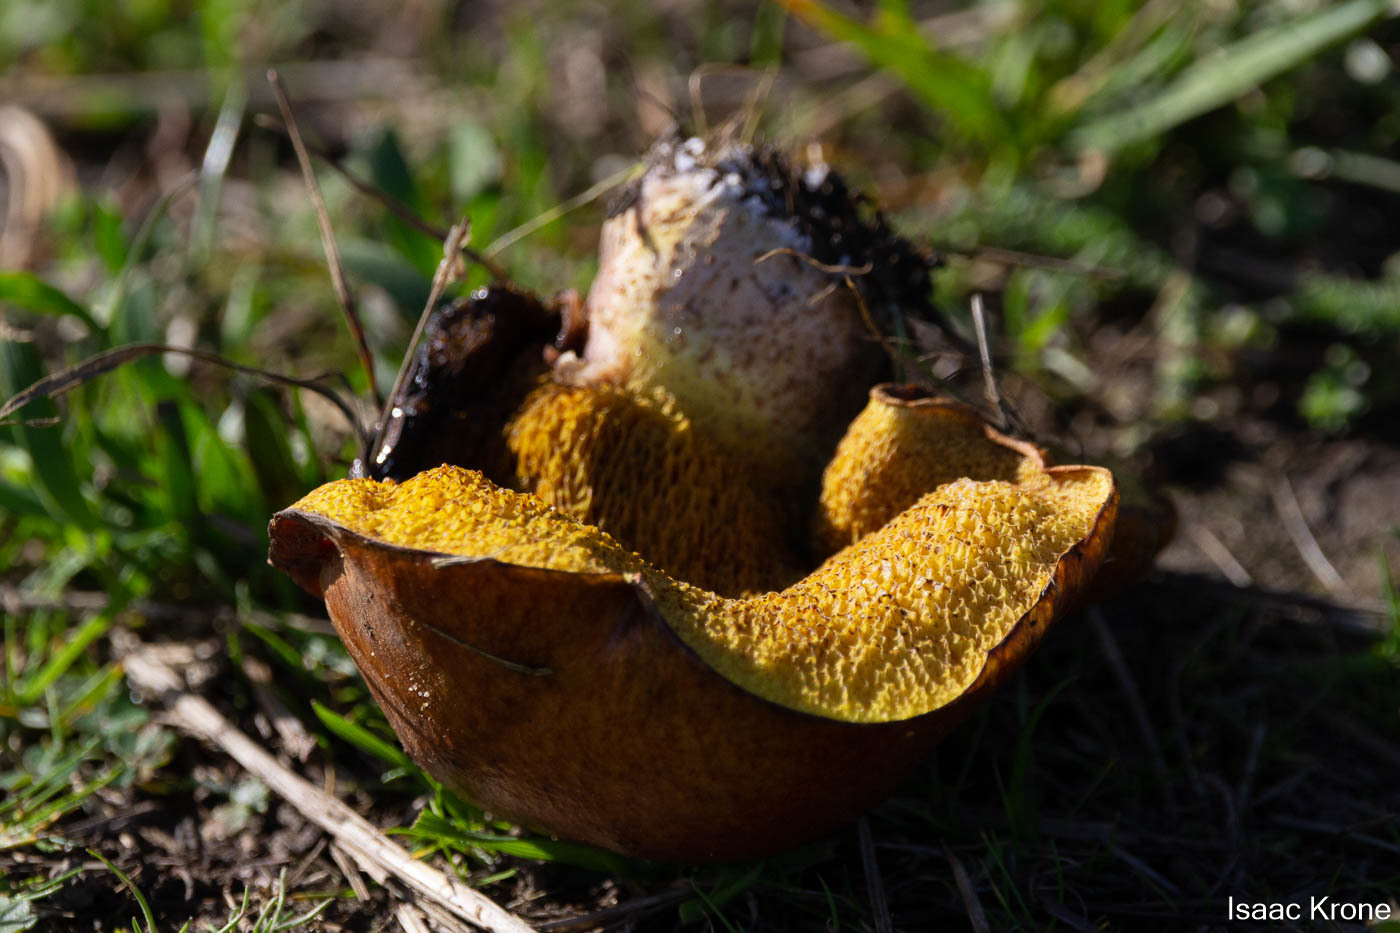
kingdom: Fungi
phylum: Basidiomycota
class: Agaricomycetes
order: Boletales
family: Suillaceae
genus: Suillus
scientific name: Suillus pungens
